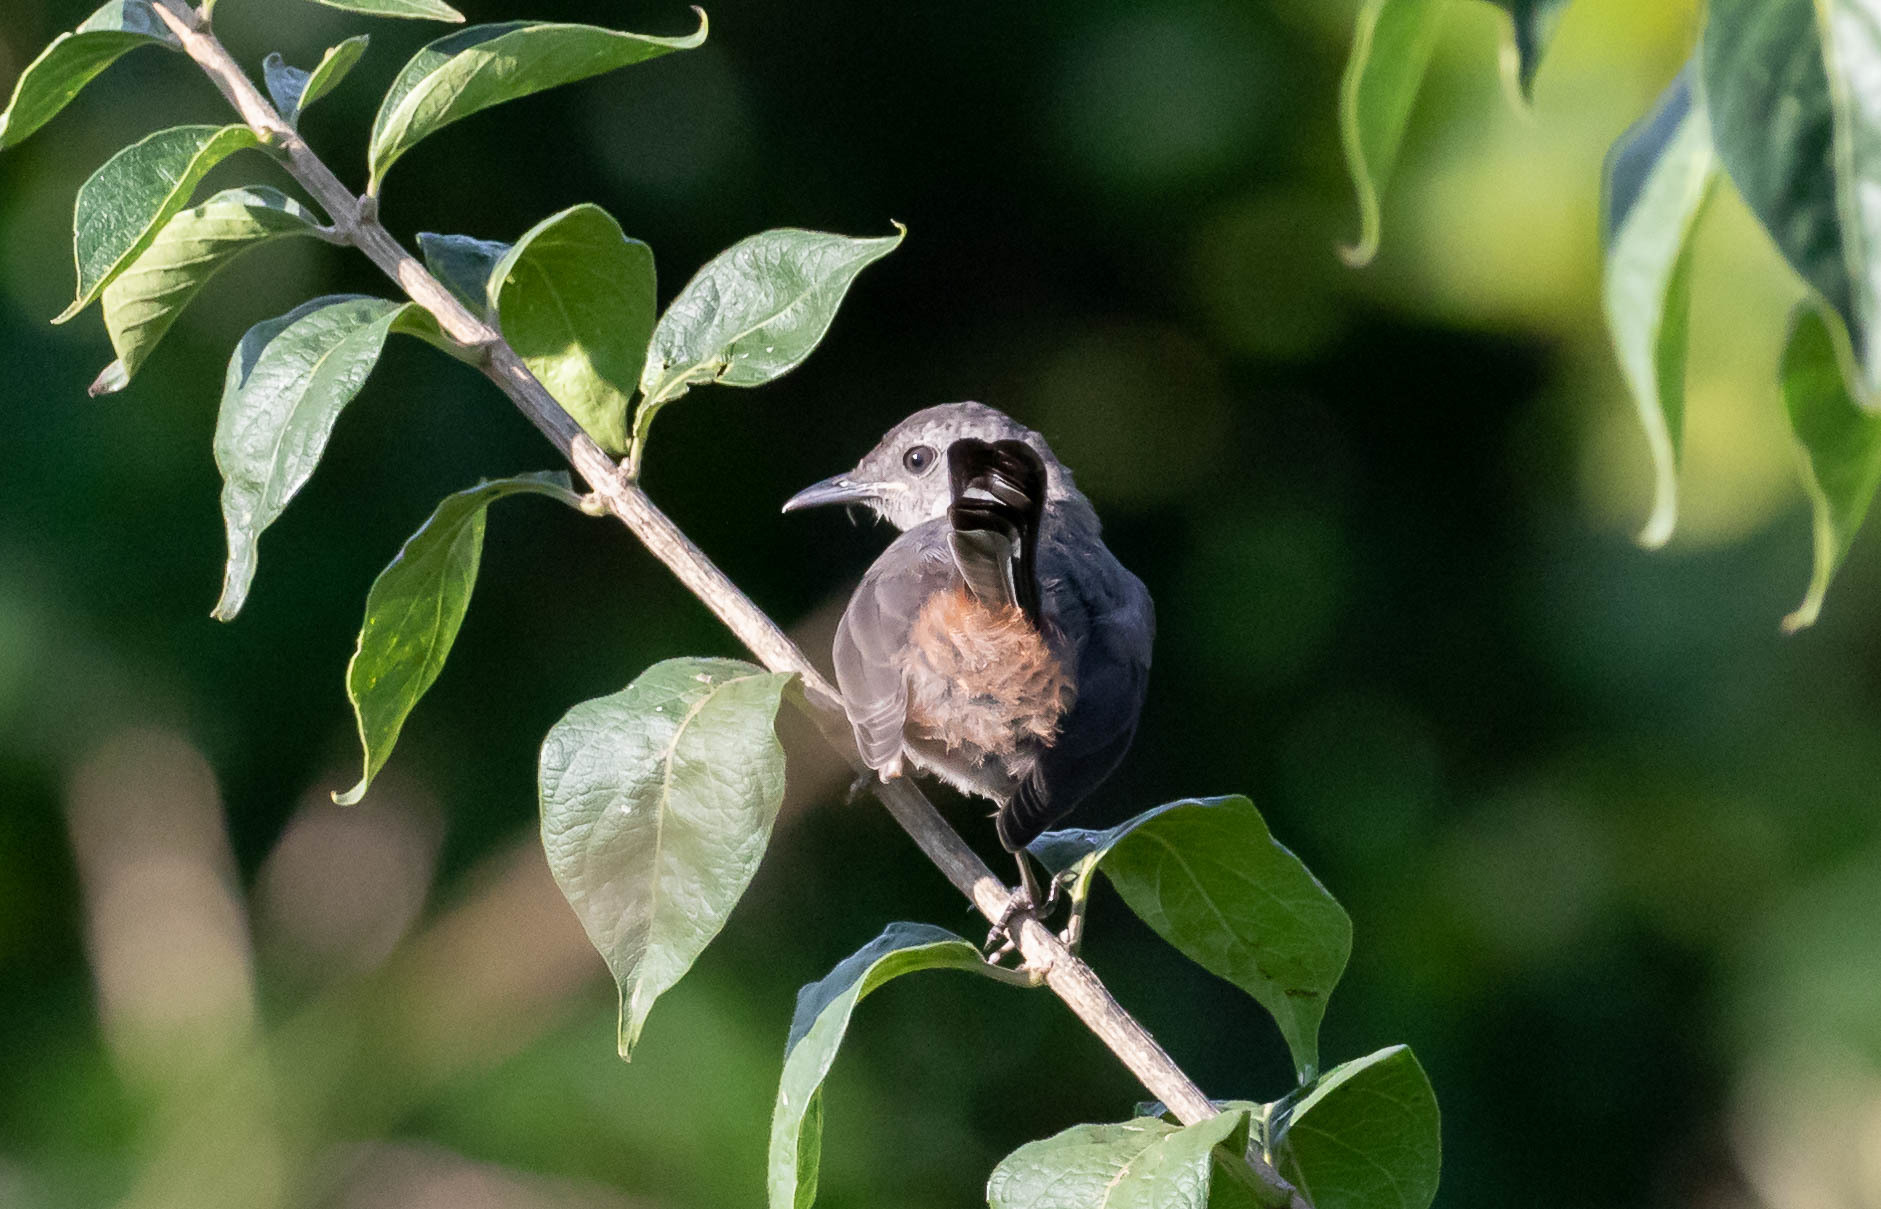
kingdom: Animalia
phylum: Chordata
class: Aves
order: Passeriformes
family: Mimidae
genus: Dumetella
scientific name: Dumetella carolinensis
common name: Gray catbird
